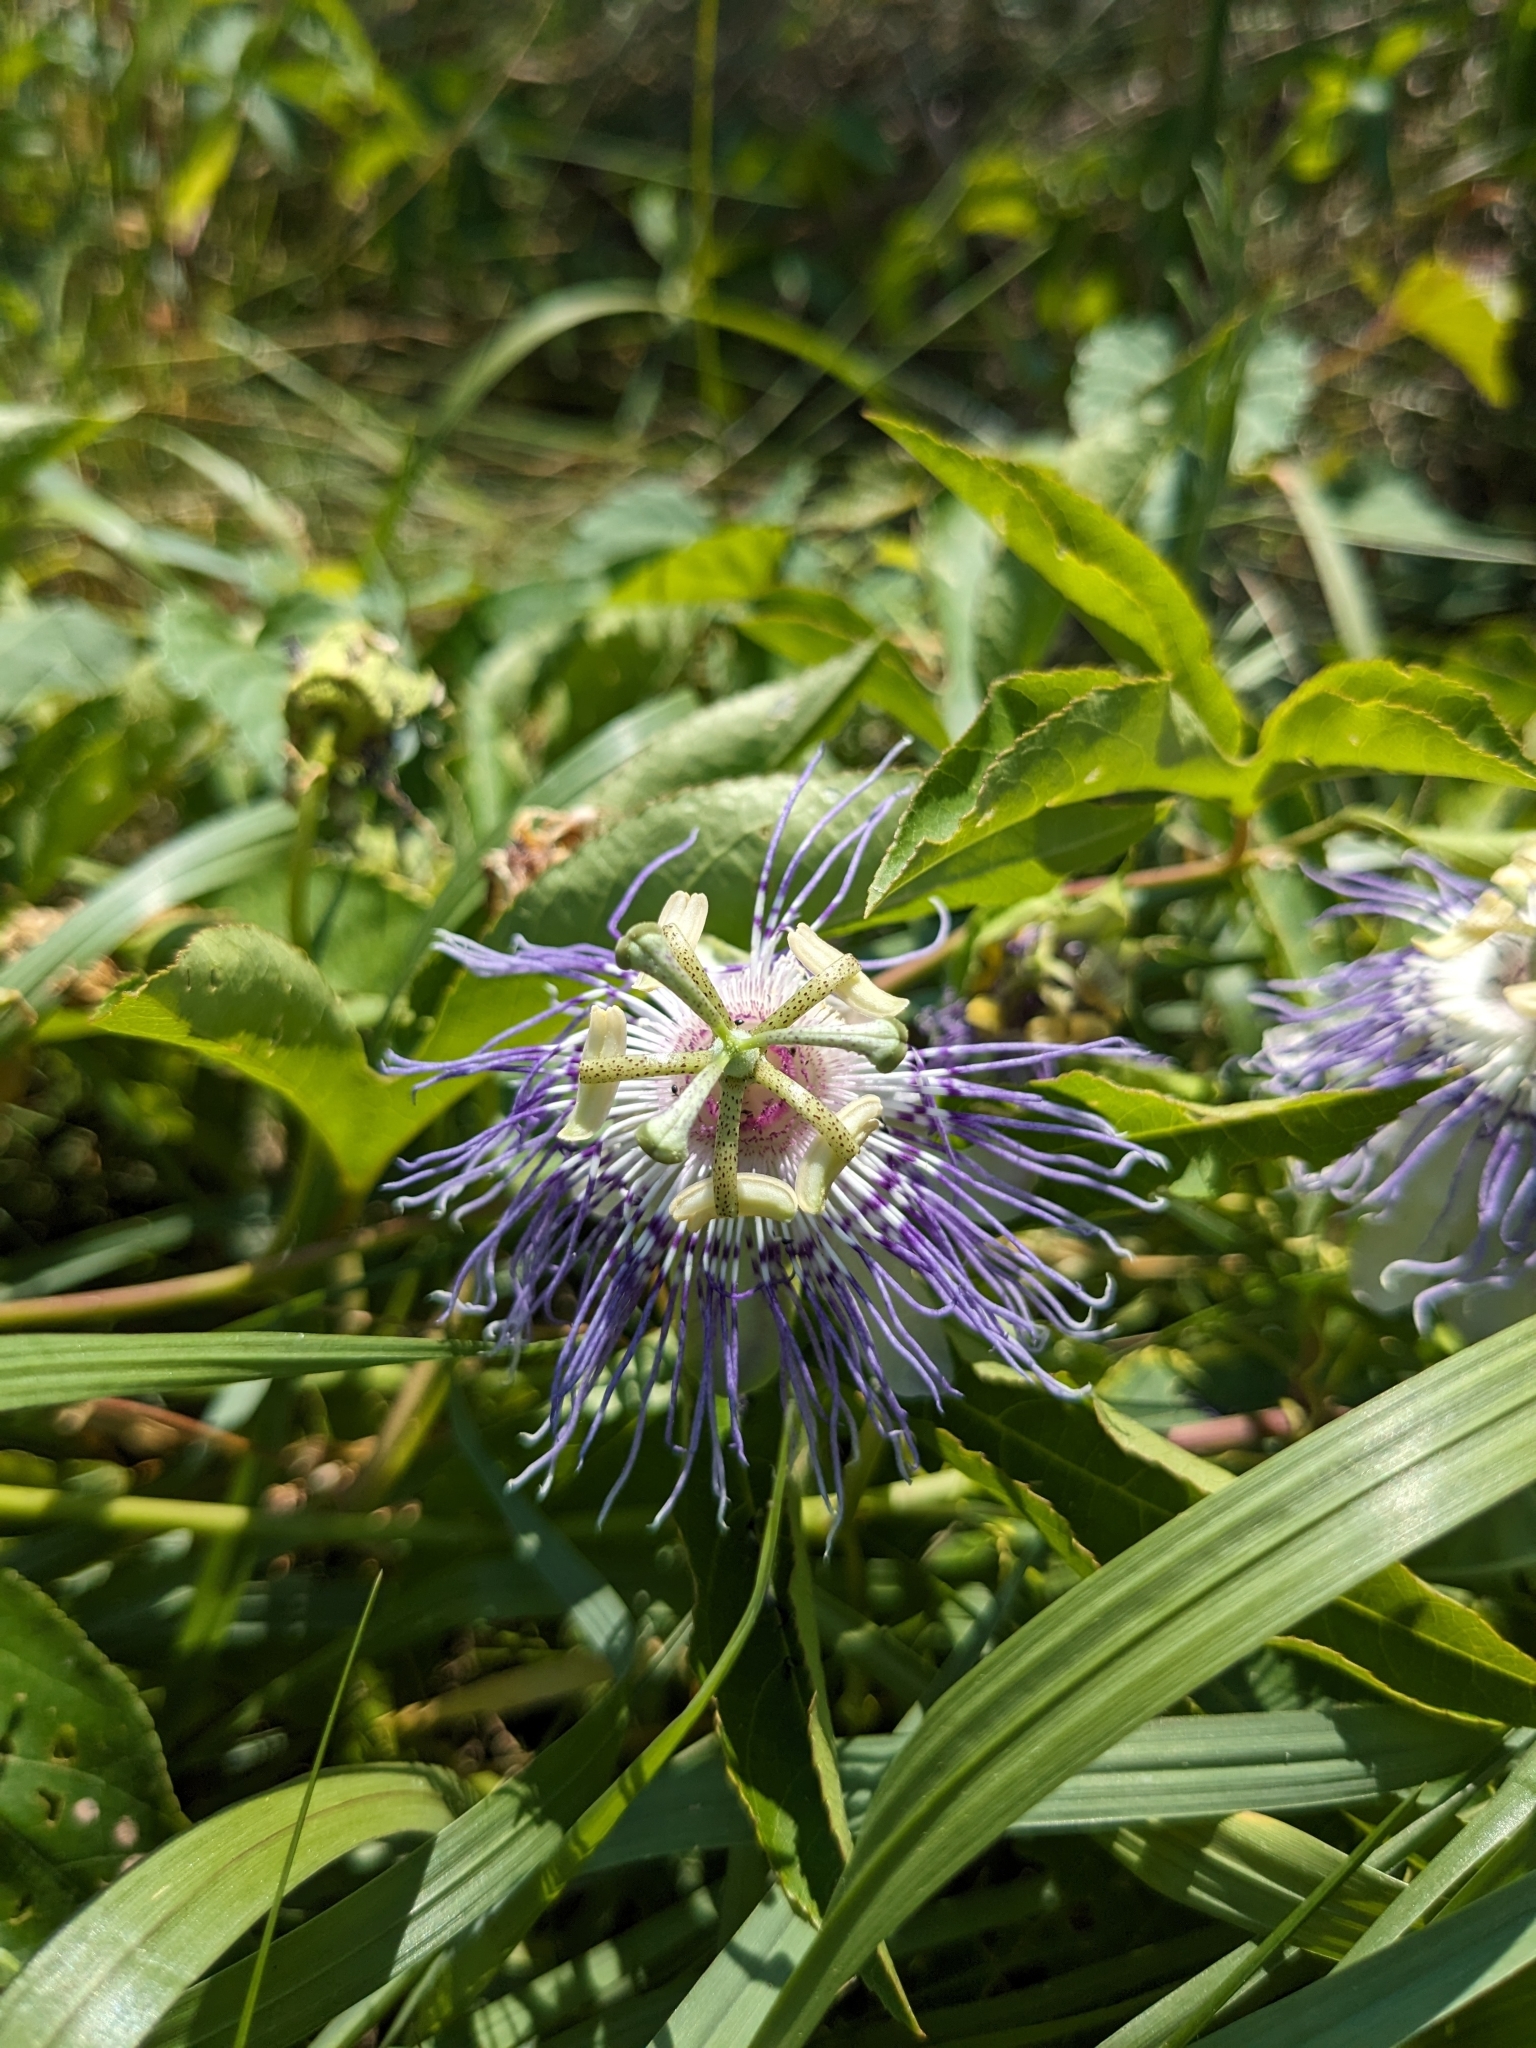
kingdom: Plantae
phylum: Tracheophyta
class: Magnoliopsida
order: Malpighiales
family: Passifloraceae
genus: Passiflora
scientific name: Passiflora incarnata
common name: Apricot-vine
